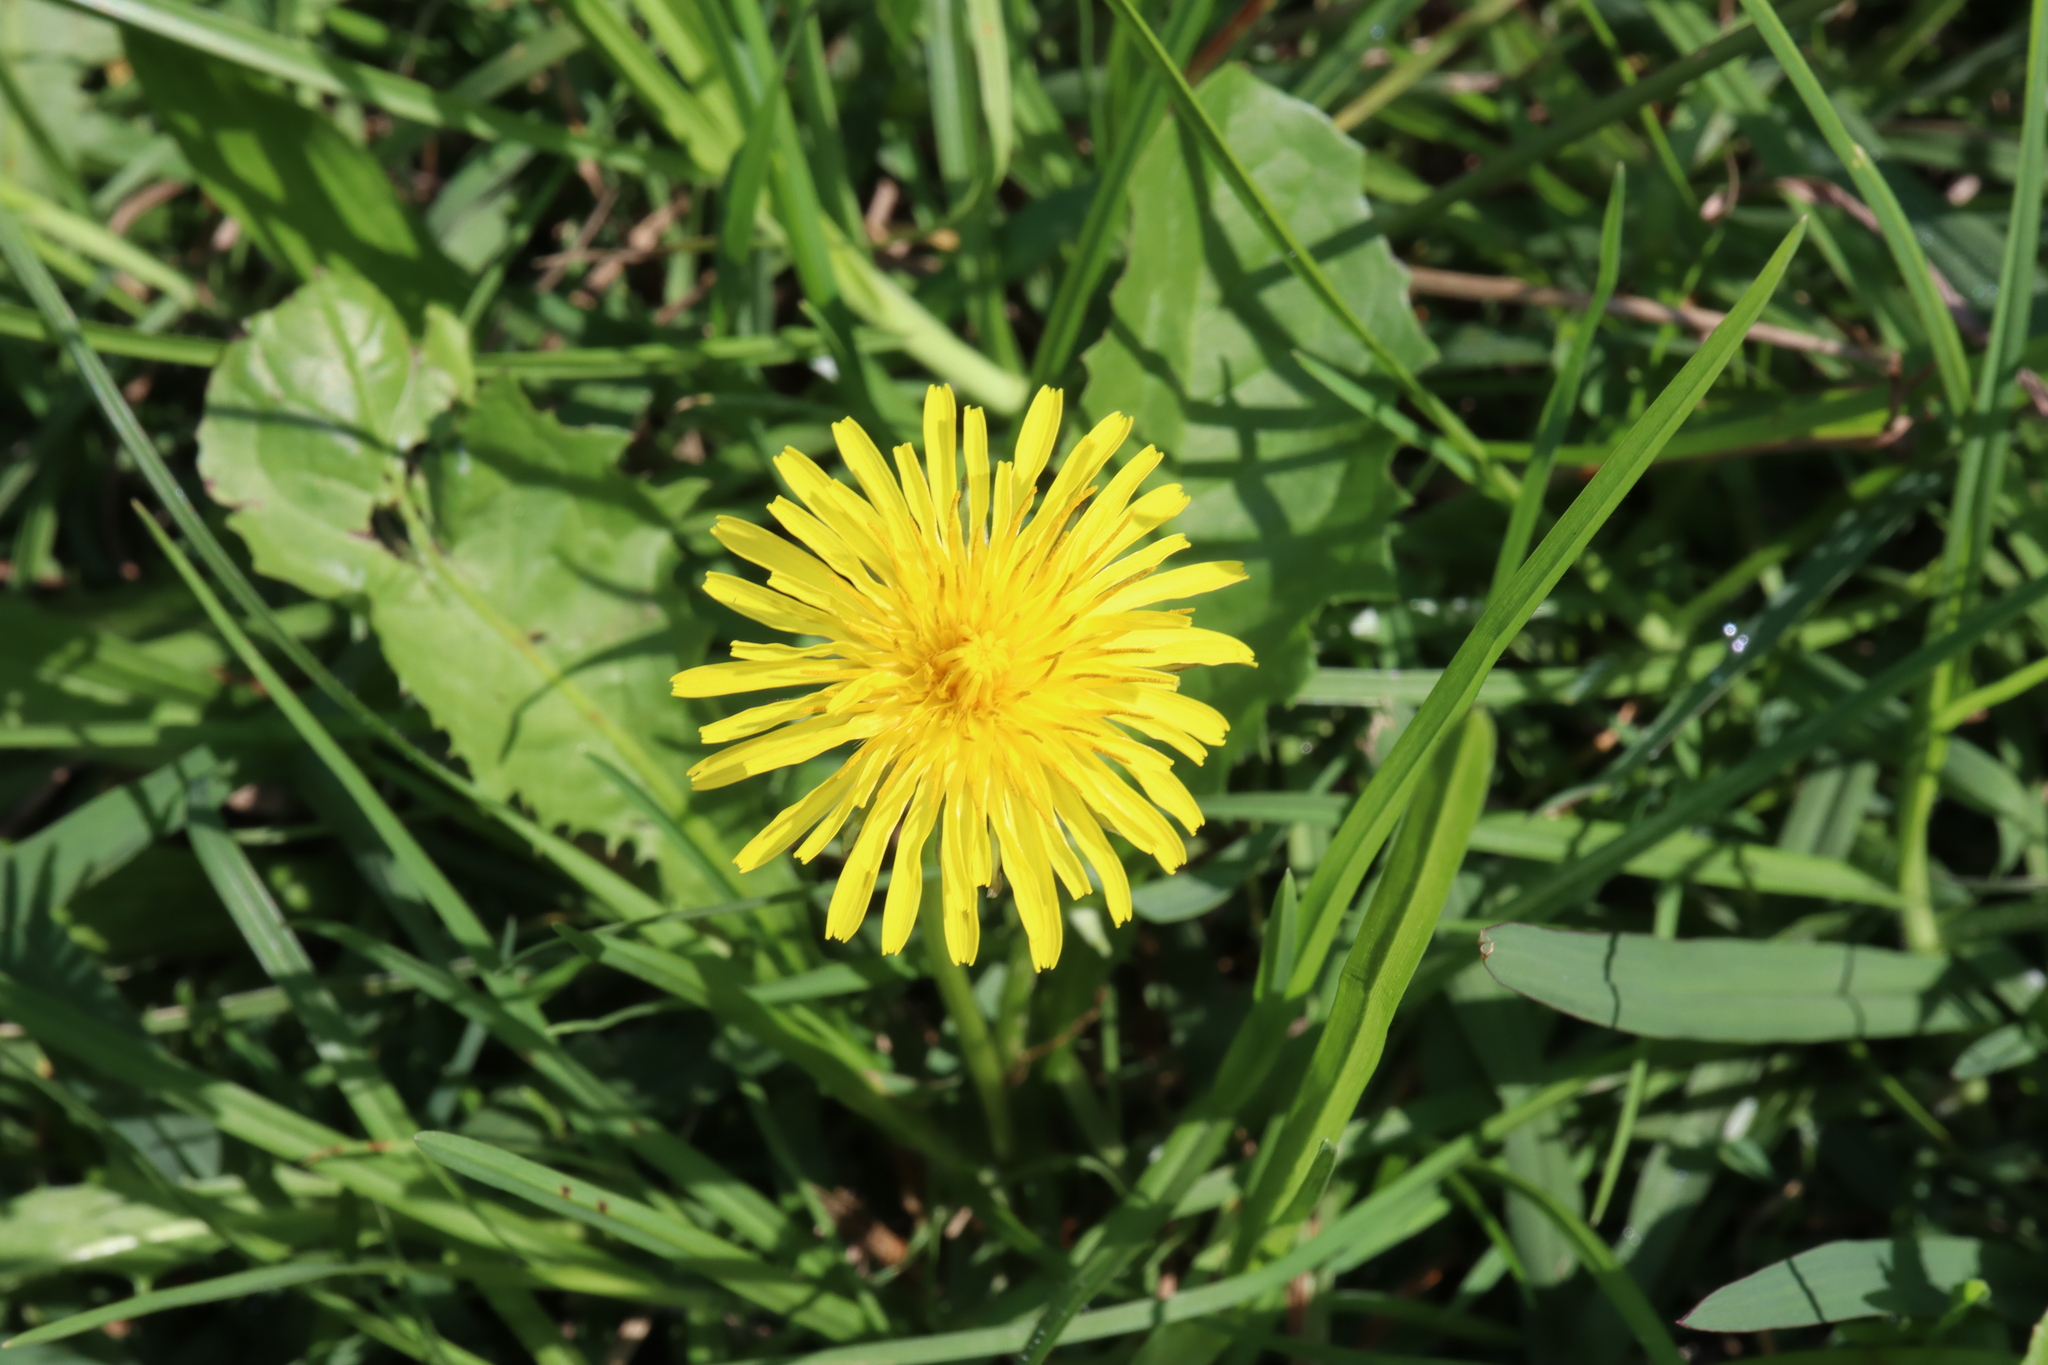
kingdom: Plantae
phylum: Tracheophyta
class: Magnoliopsida
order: Asterales
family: Asteraceae
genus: Taraxacum
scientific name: Taraxacum officinale
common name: Common dandelion
